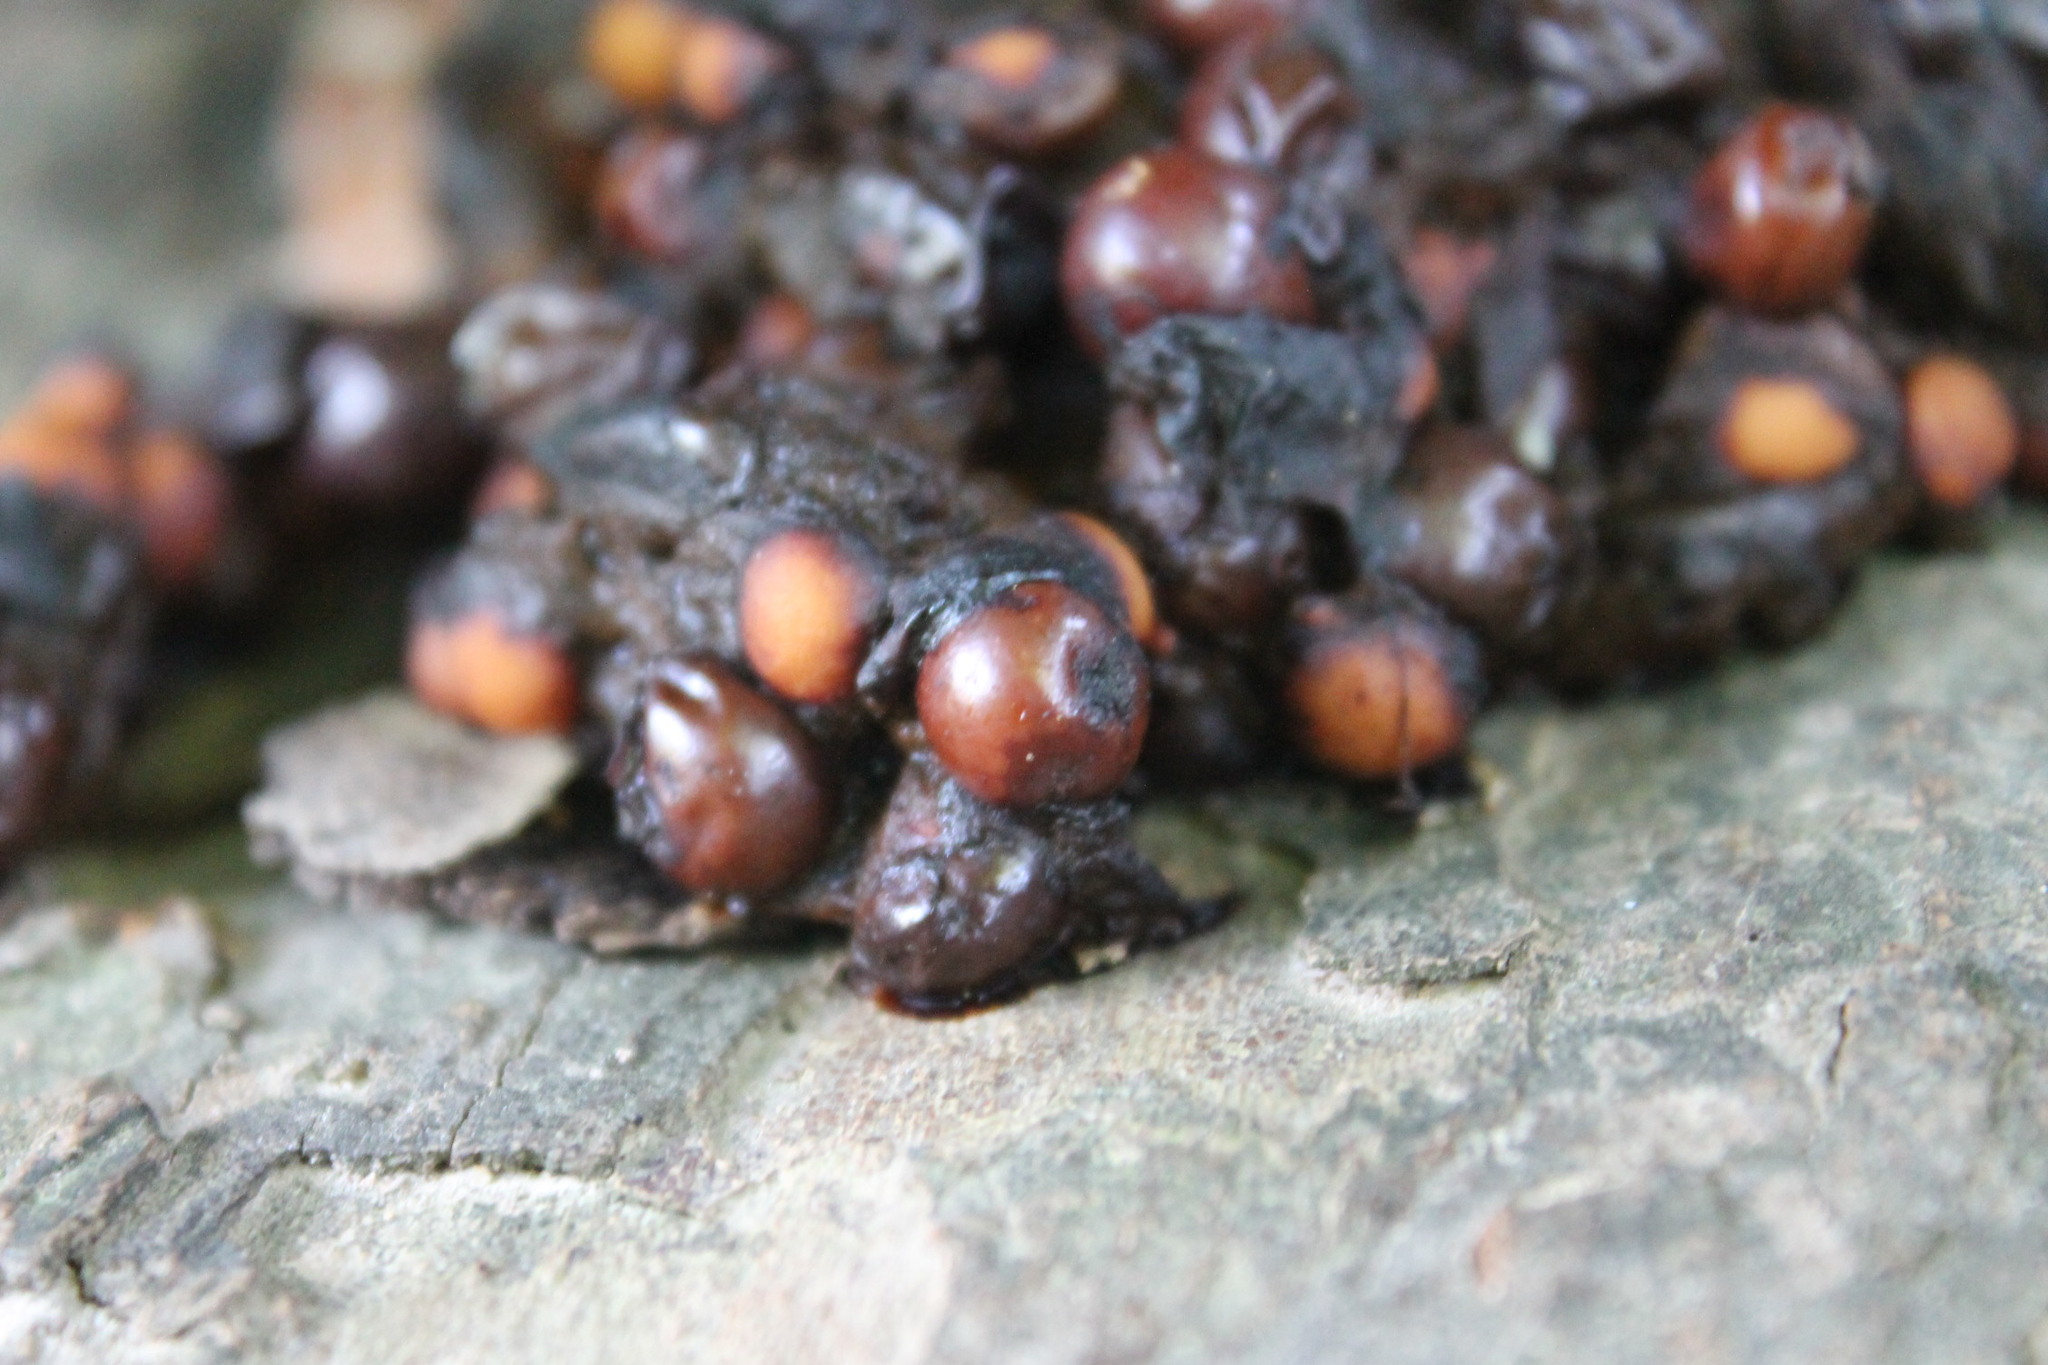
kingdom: Animalia
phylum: Chordata
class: Mammalia
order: Carnivora
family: Procyonidae
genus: Procyon
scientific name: Procyon lotor
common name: Raccoon
